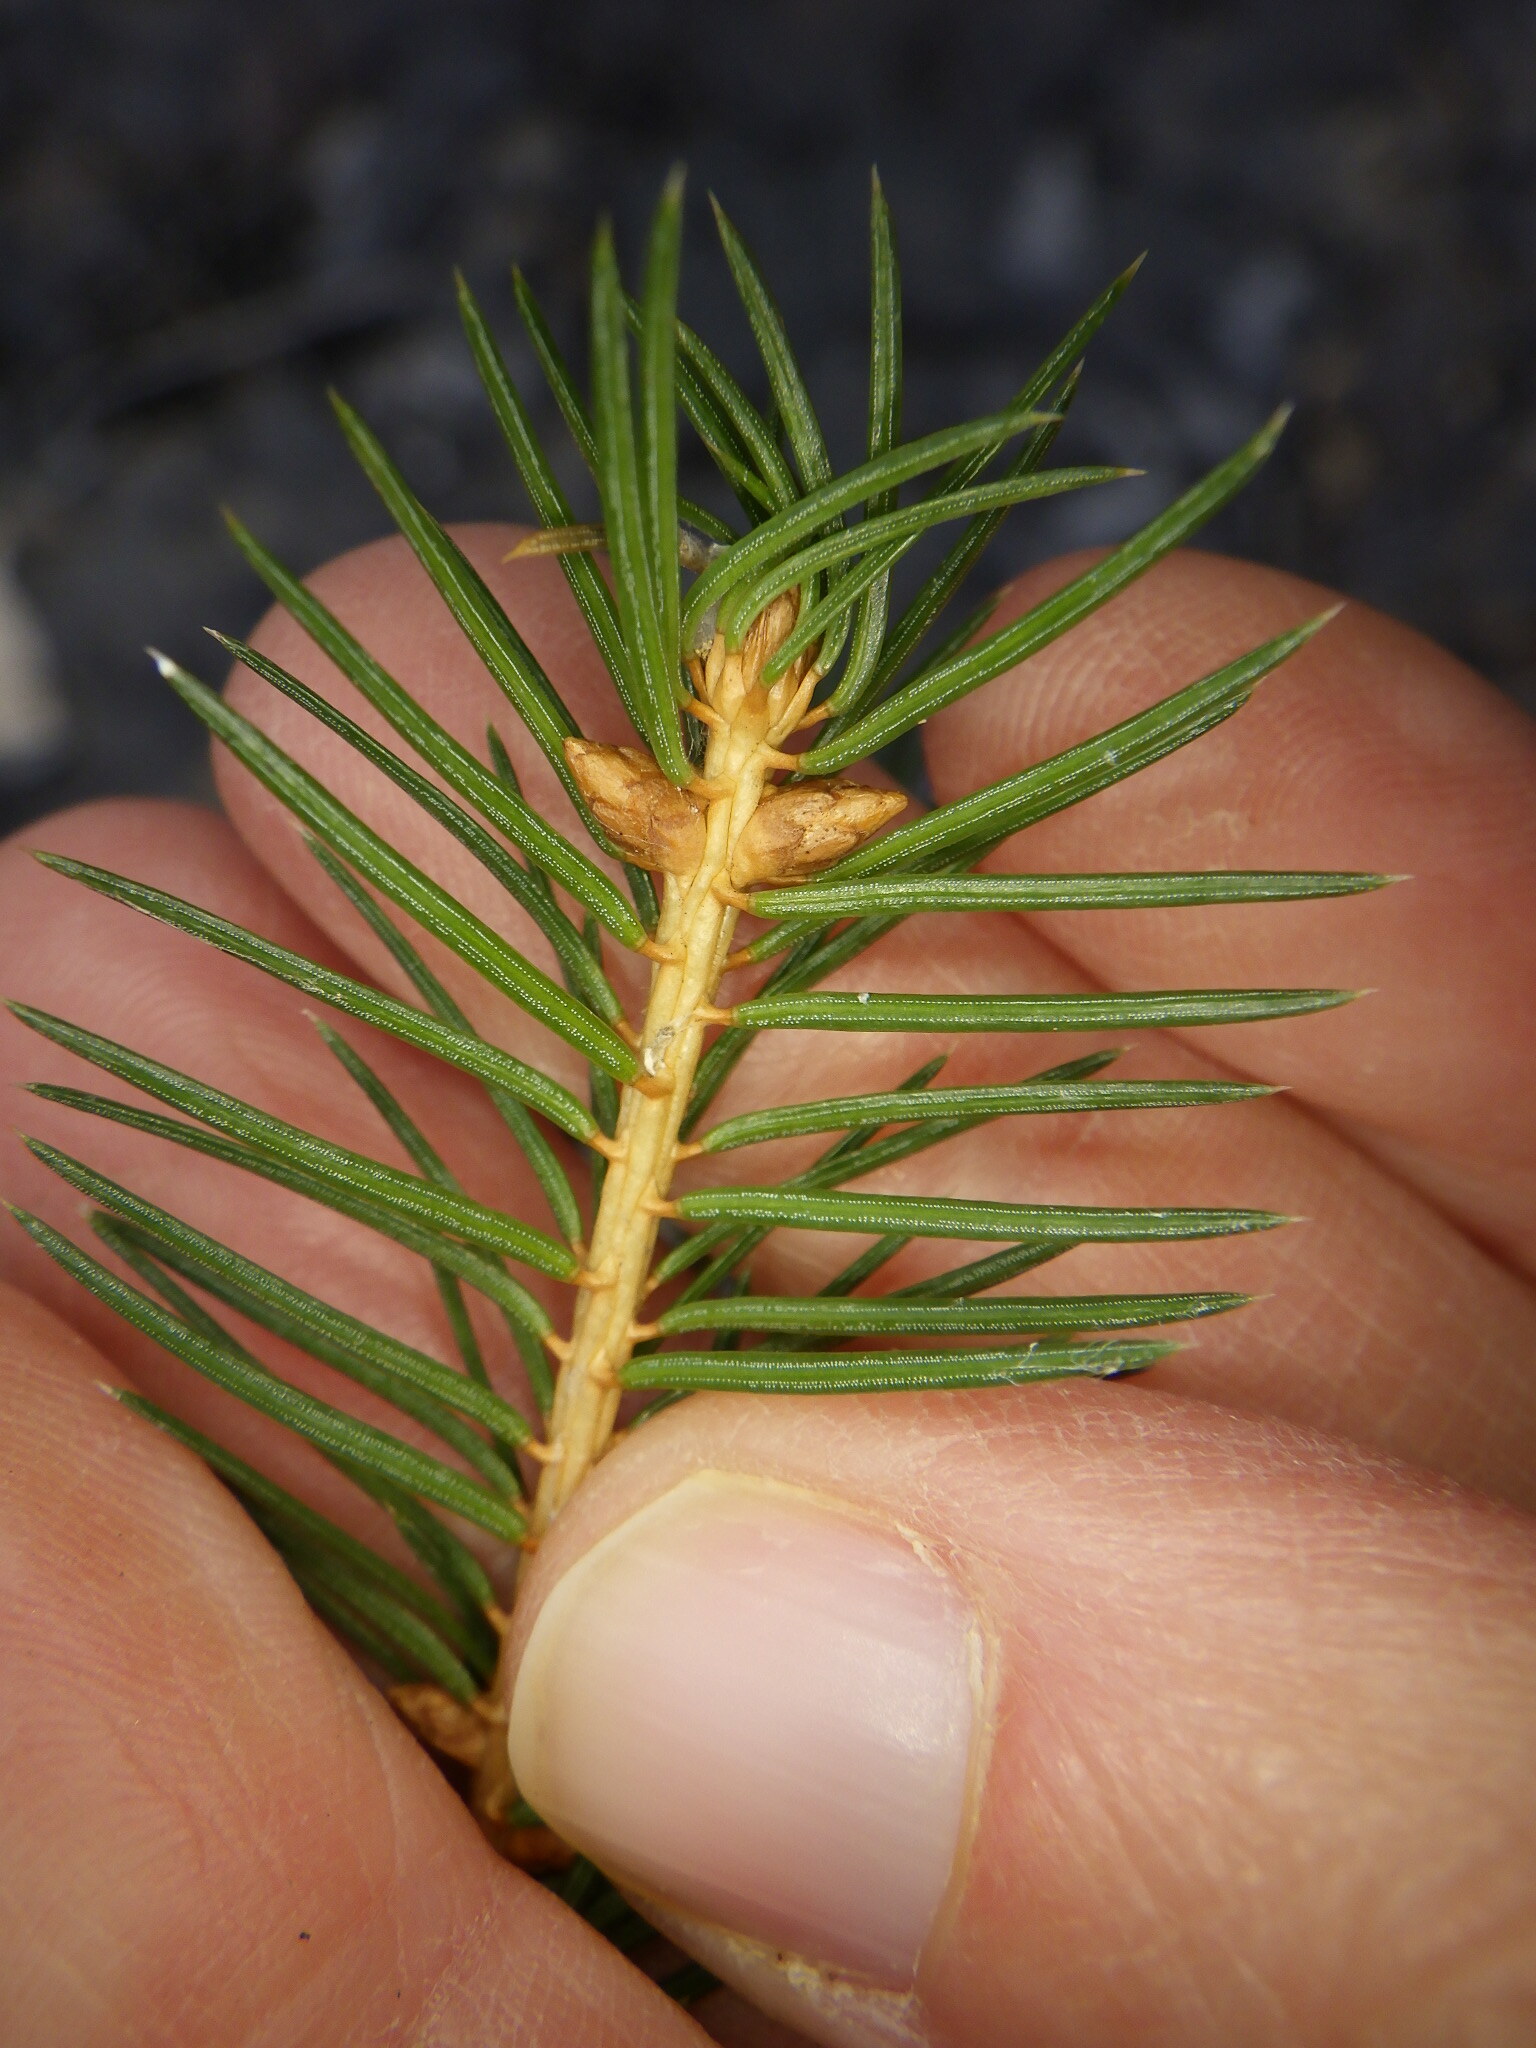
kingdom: Plantae
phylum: Tracheophyta
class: Pinopsida
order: Pinales
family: Pinaceae
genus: Picea
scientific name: Picea abies
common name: Norway spruce
